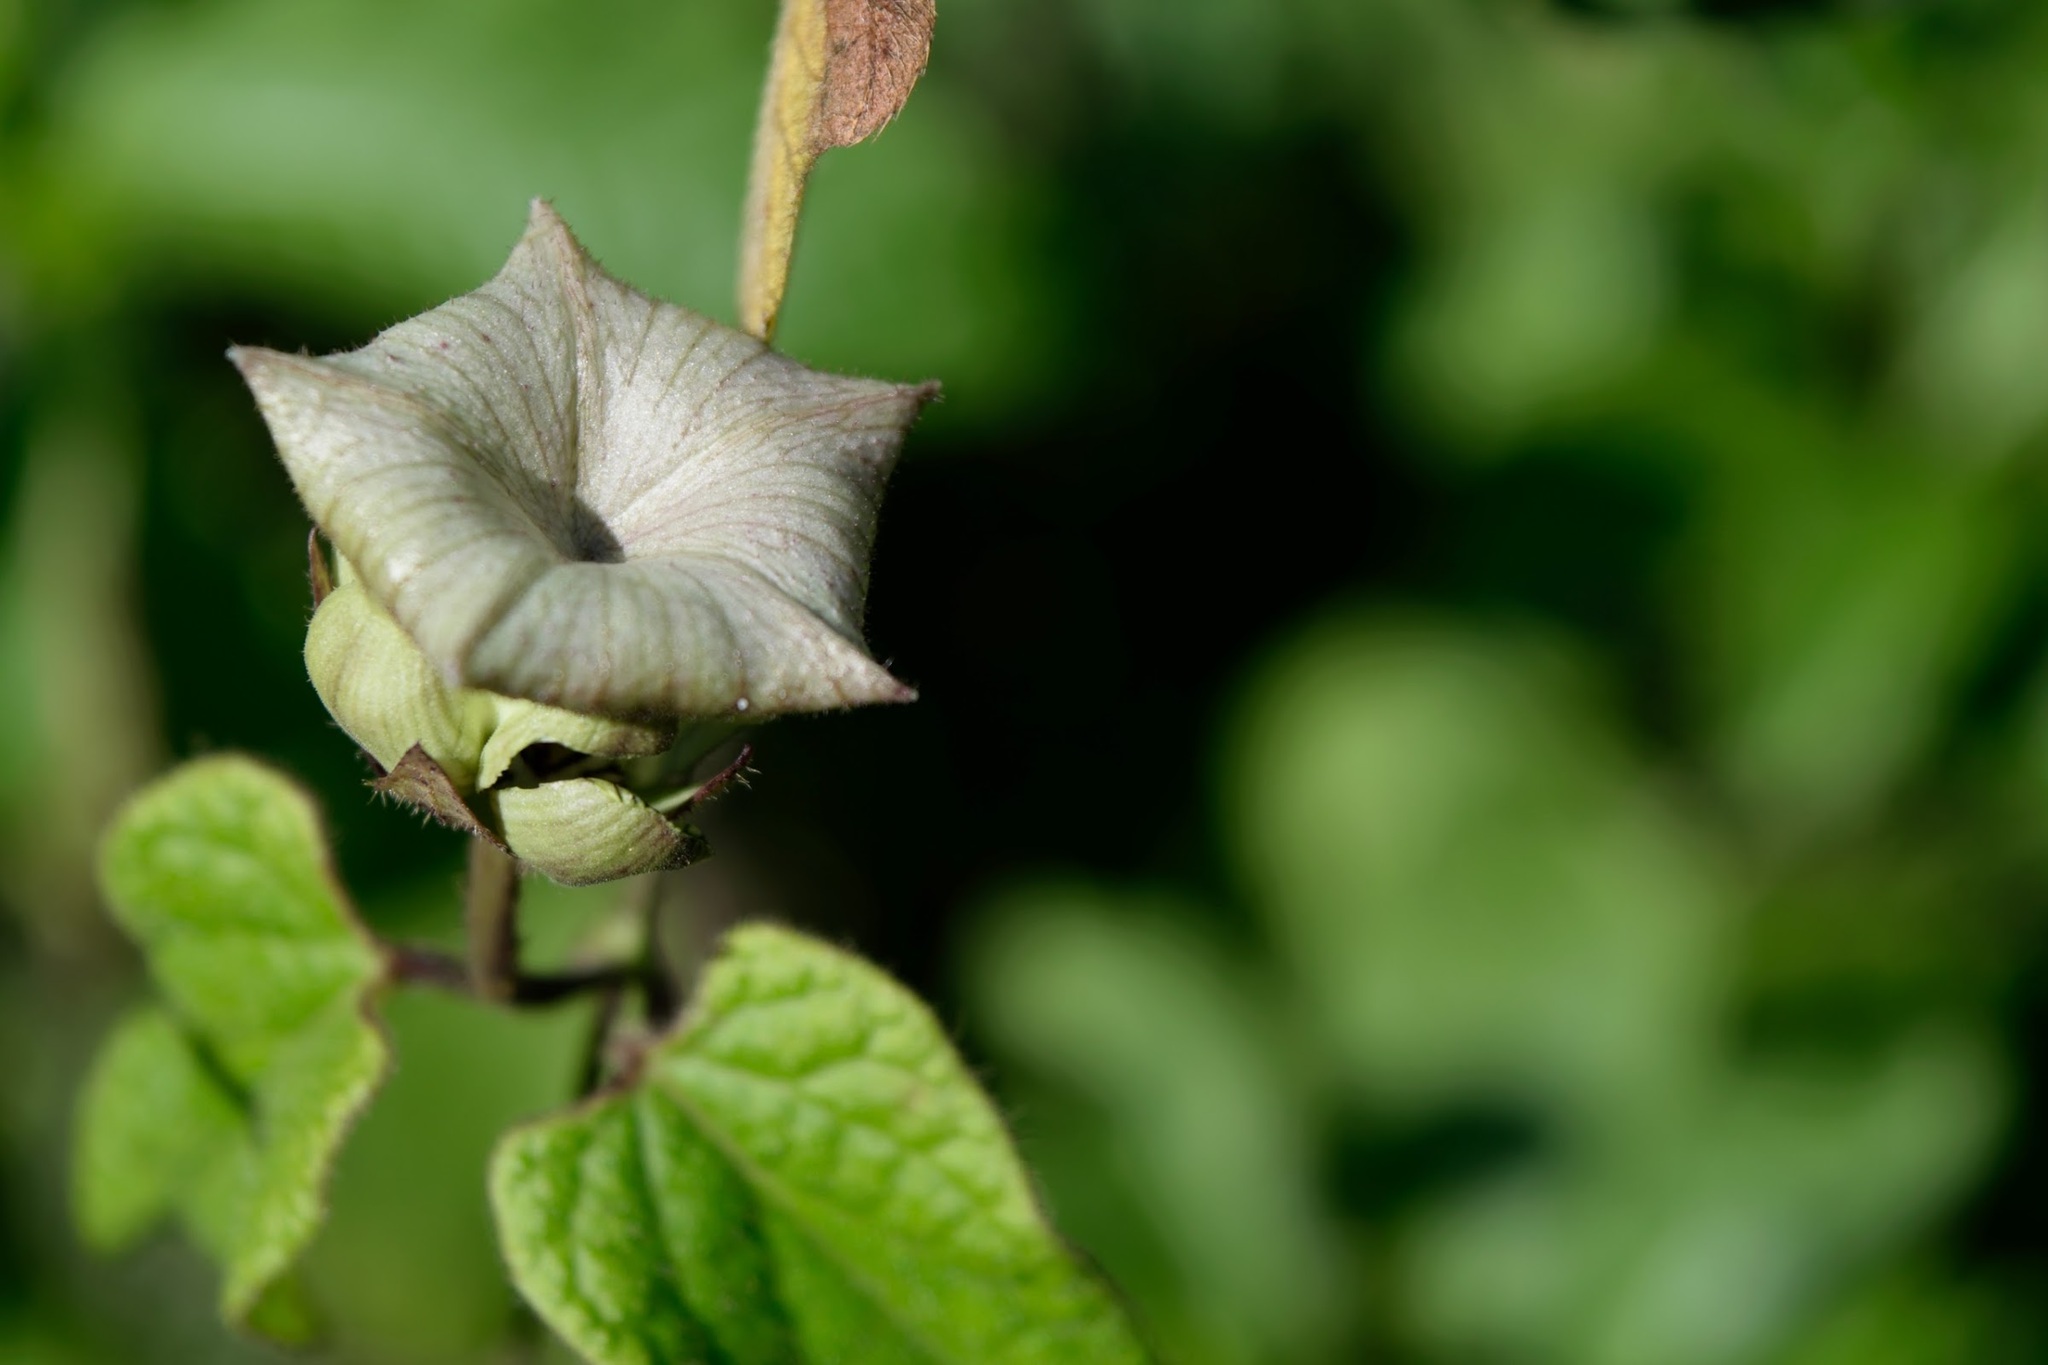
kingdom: Plantae
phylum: Tracheophyta
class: Magnoliopsida
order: Gentianales
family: Apocynaceae
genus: Dictyanthus
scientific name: Dictyanthus pavonii
